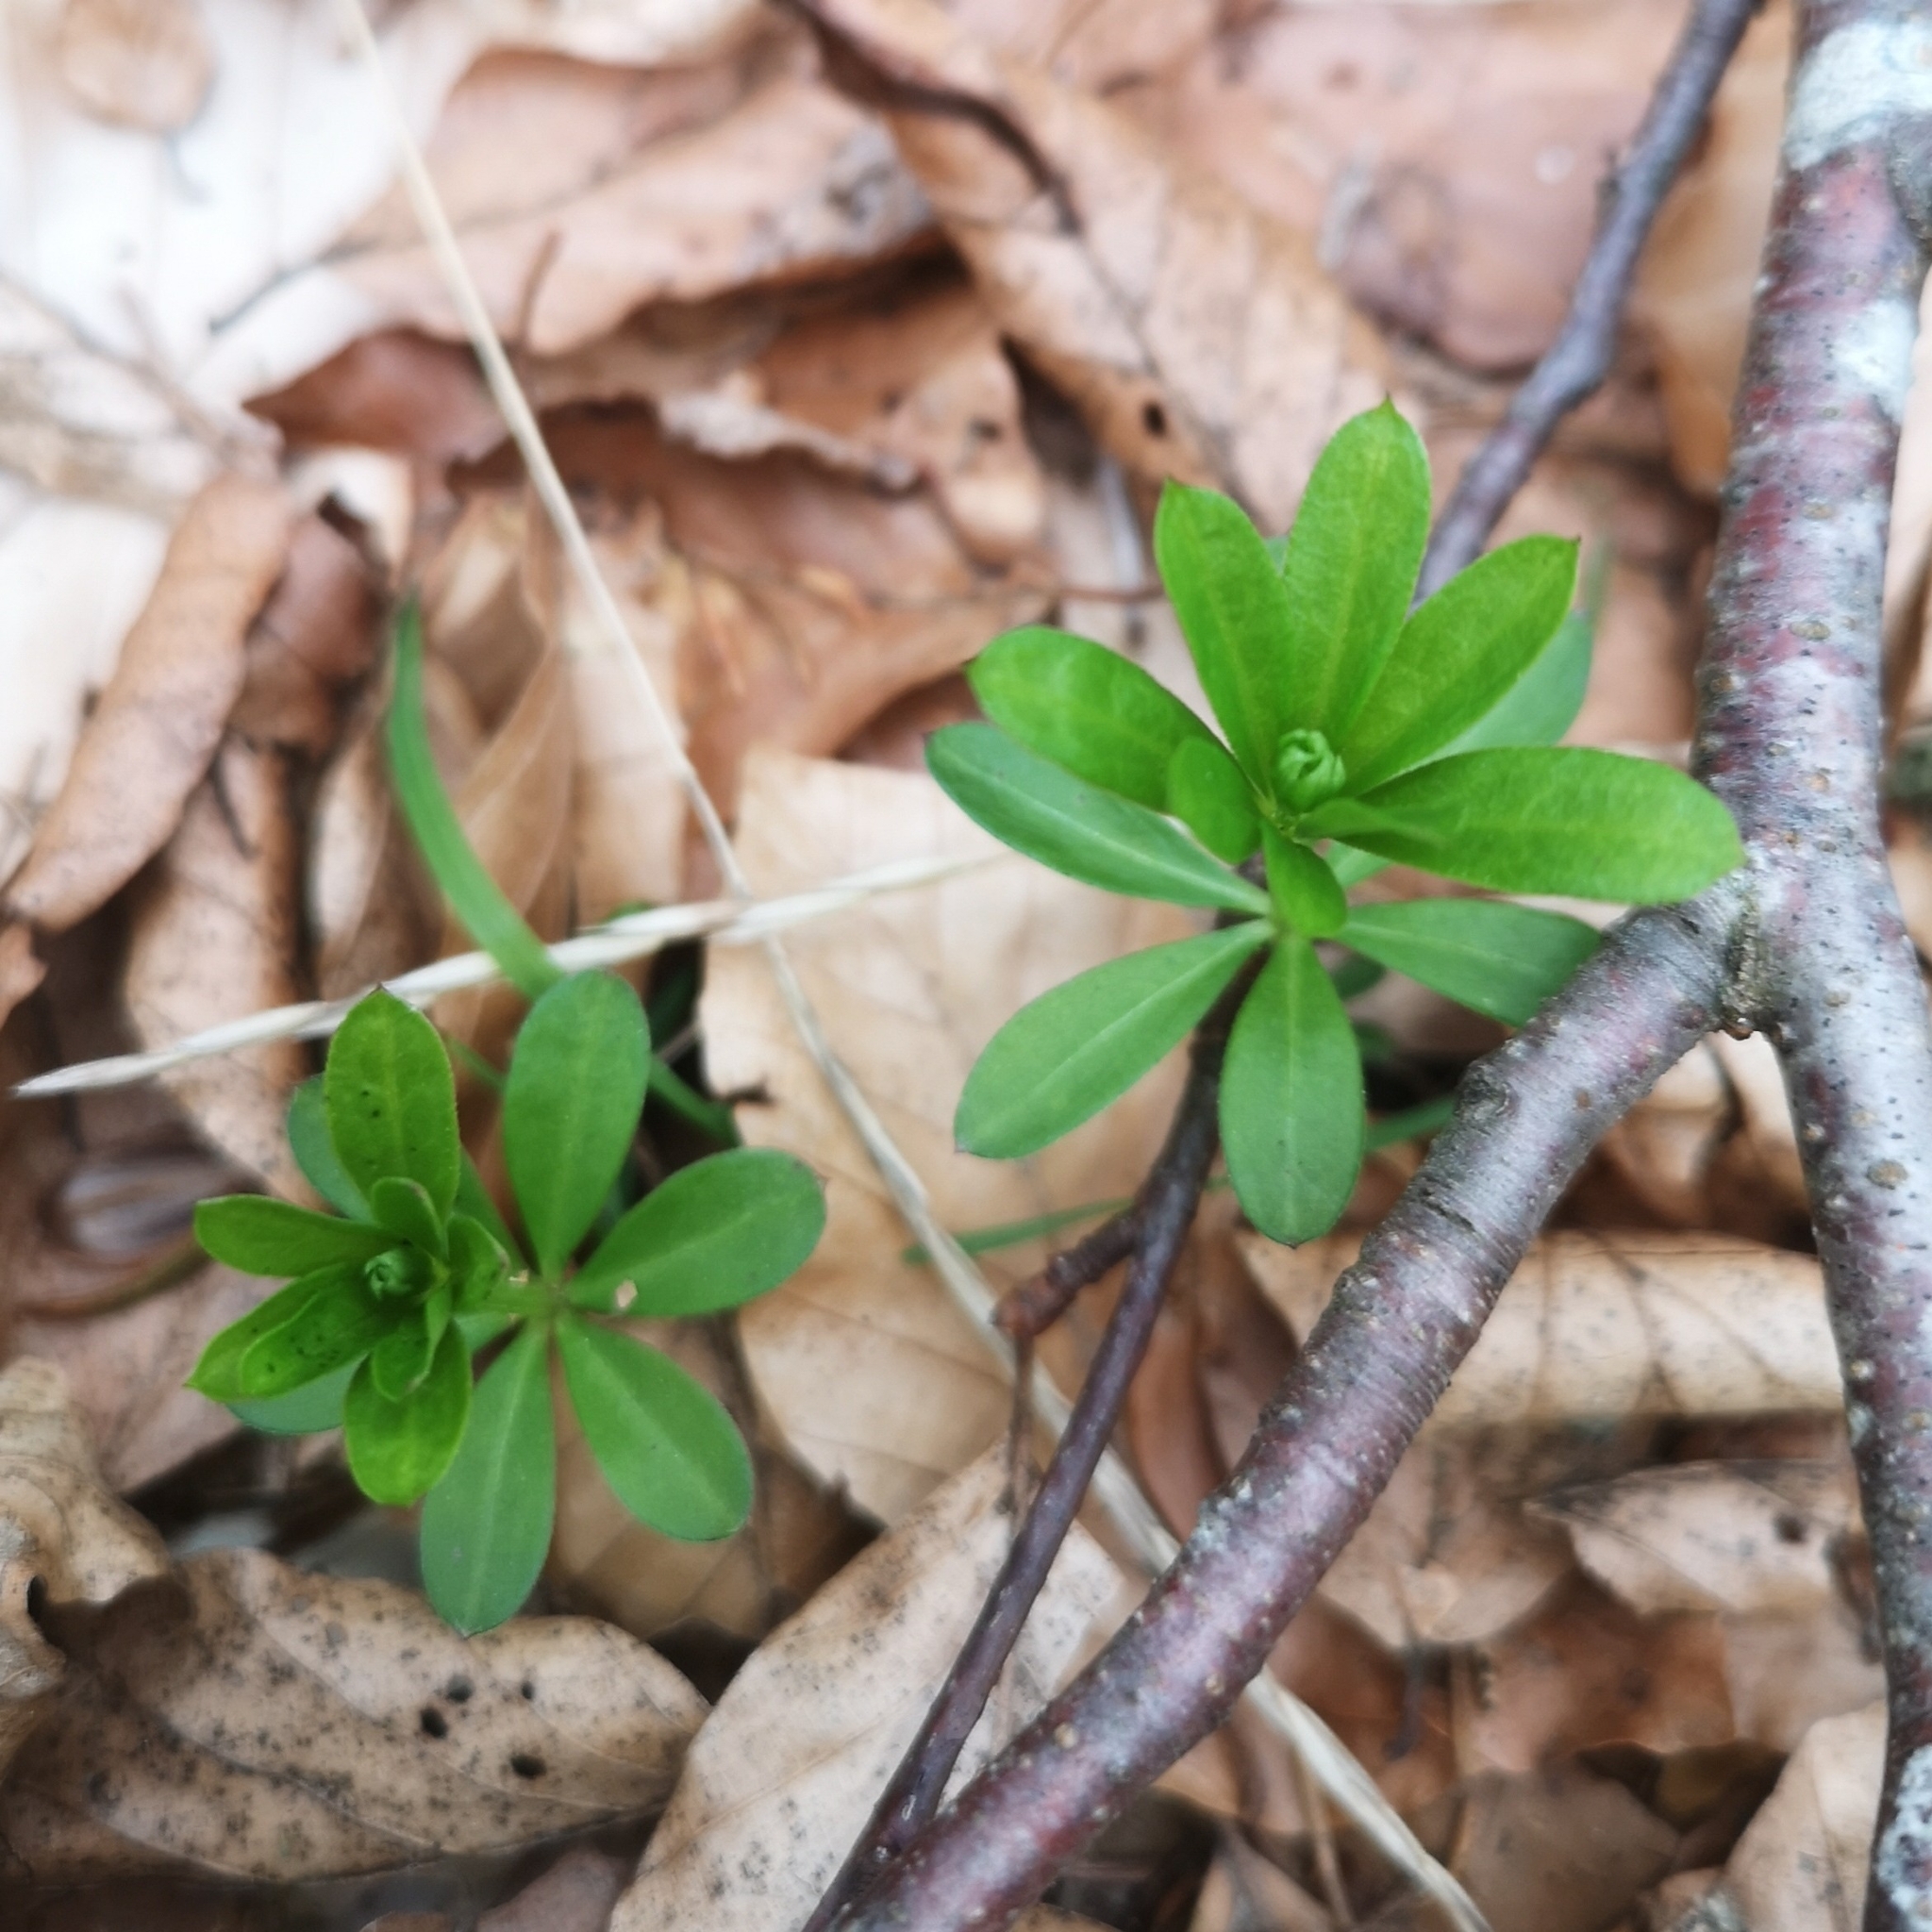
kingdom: Plantae
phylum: Tracheophyta
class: Magnoliopsida
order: Gentianales
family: Rubiaceae
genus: Galium
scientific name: Galium odoratum
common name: Sweet woodruff
